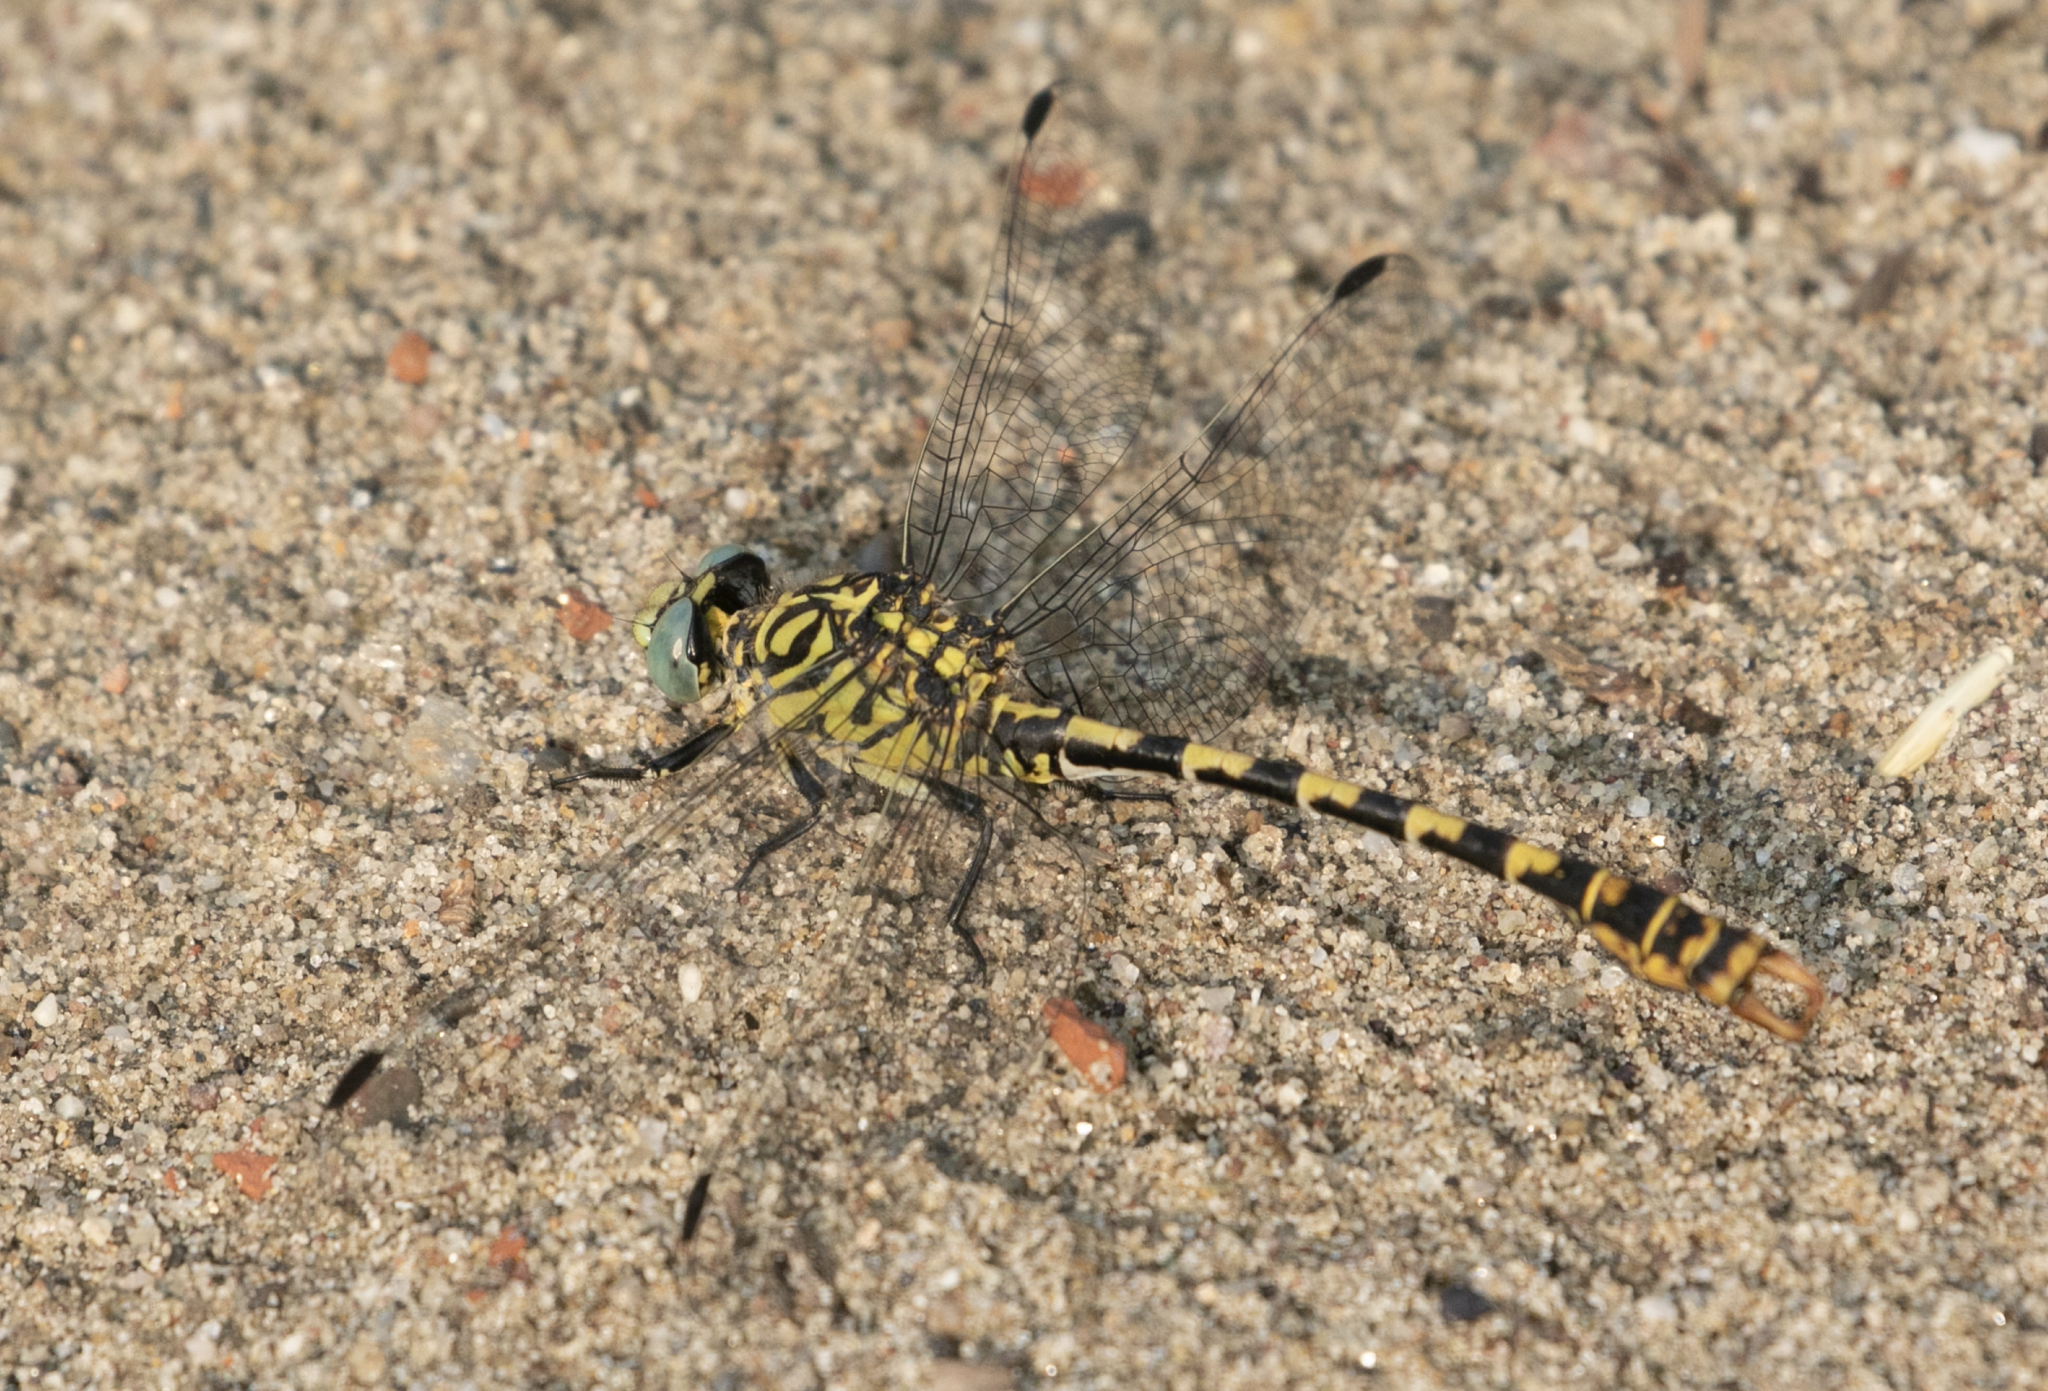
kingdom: Animalia
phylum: Arthropoda
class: Insecta
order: Odonata
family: Gomphidae
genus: Onychogomphus
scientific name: Onychogomphus forcipatus
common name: Small pincertail
